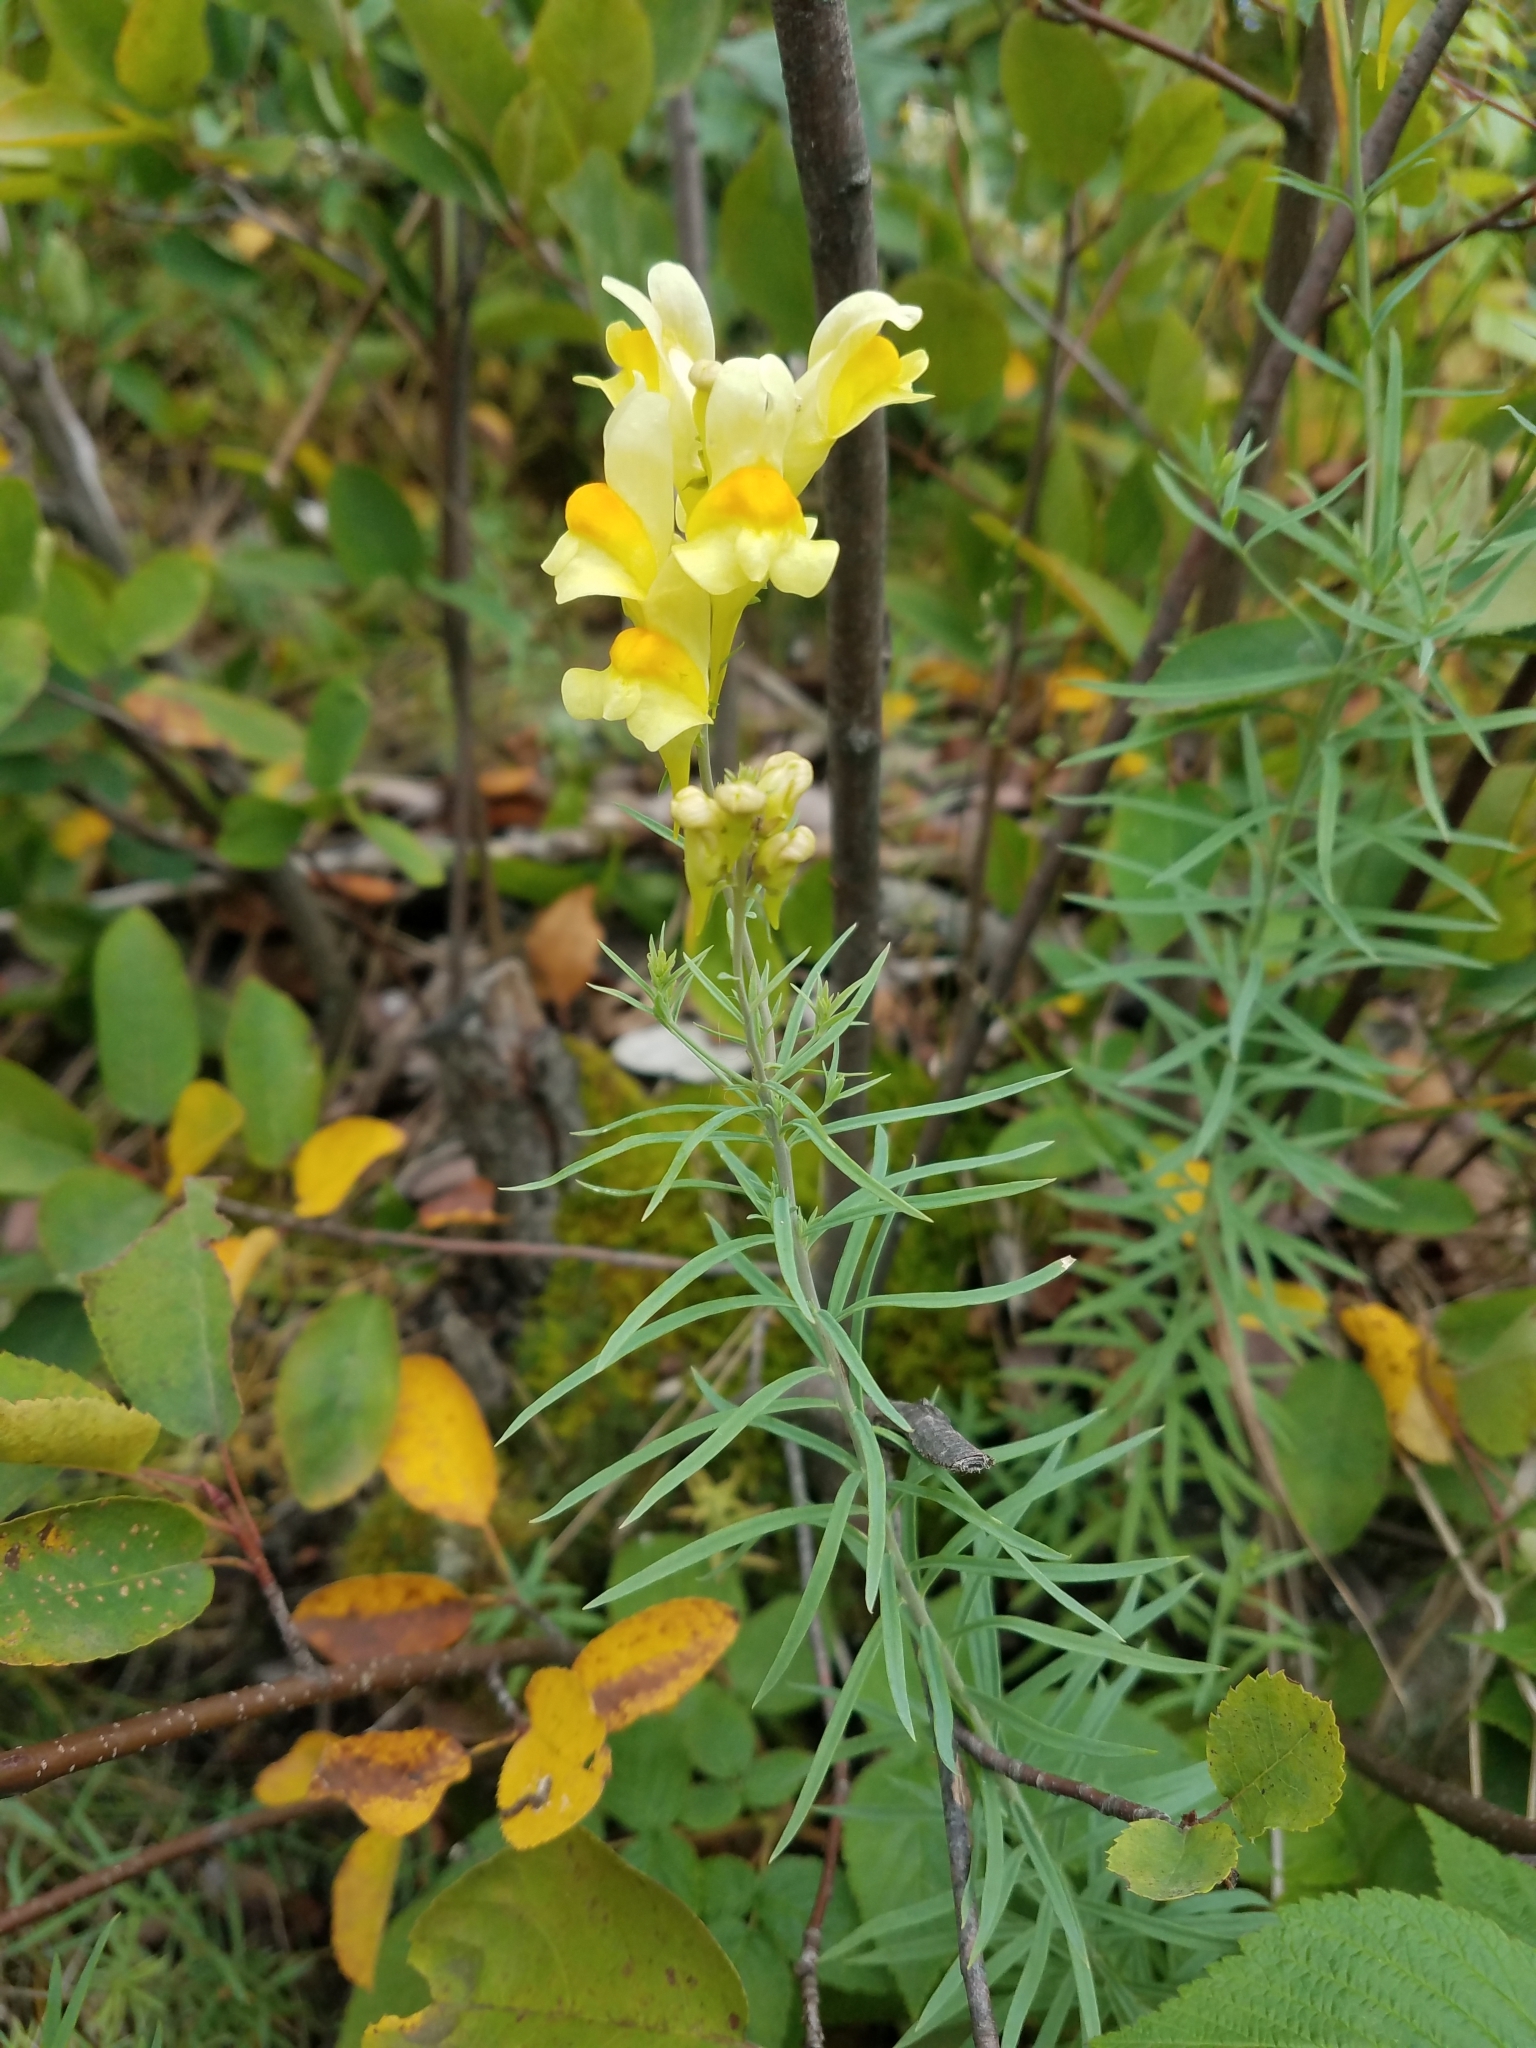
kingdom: Plantae
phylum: Tracheophyta
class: Magnoliopsida
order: Lamiales
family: Plantaginaceae
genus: Linaria
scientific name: Linaria vulgaris
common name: Butter and eggs
